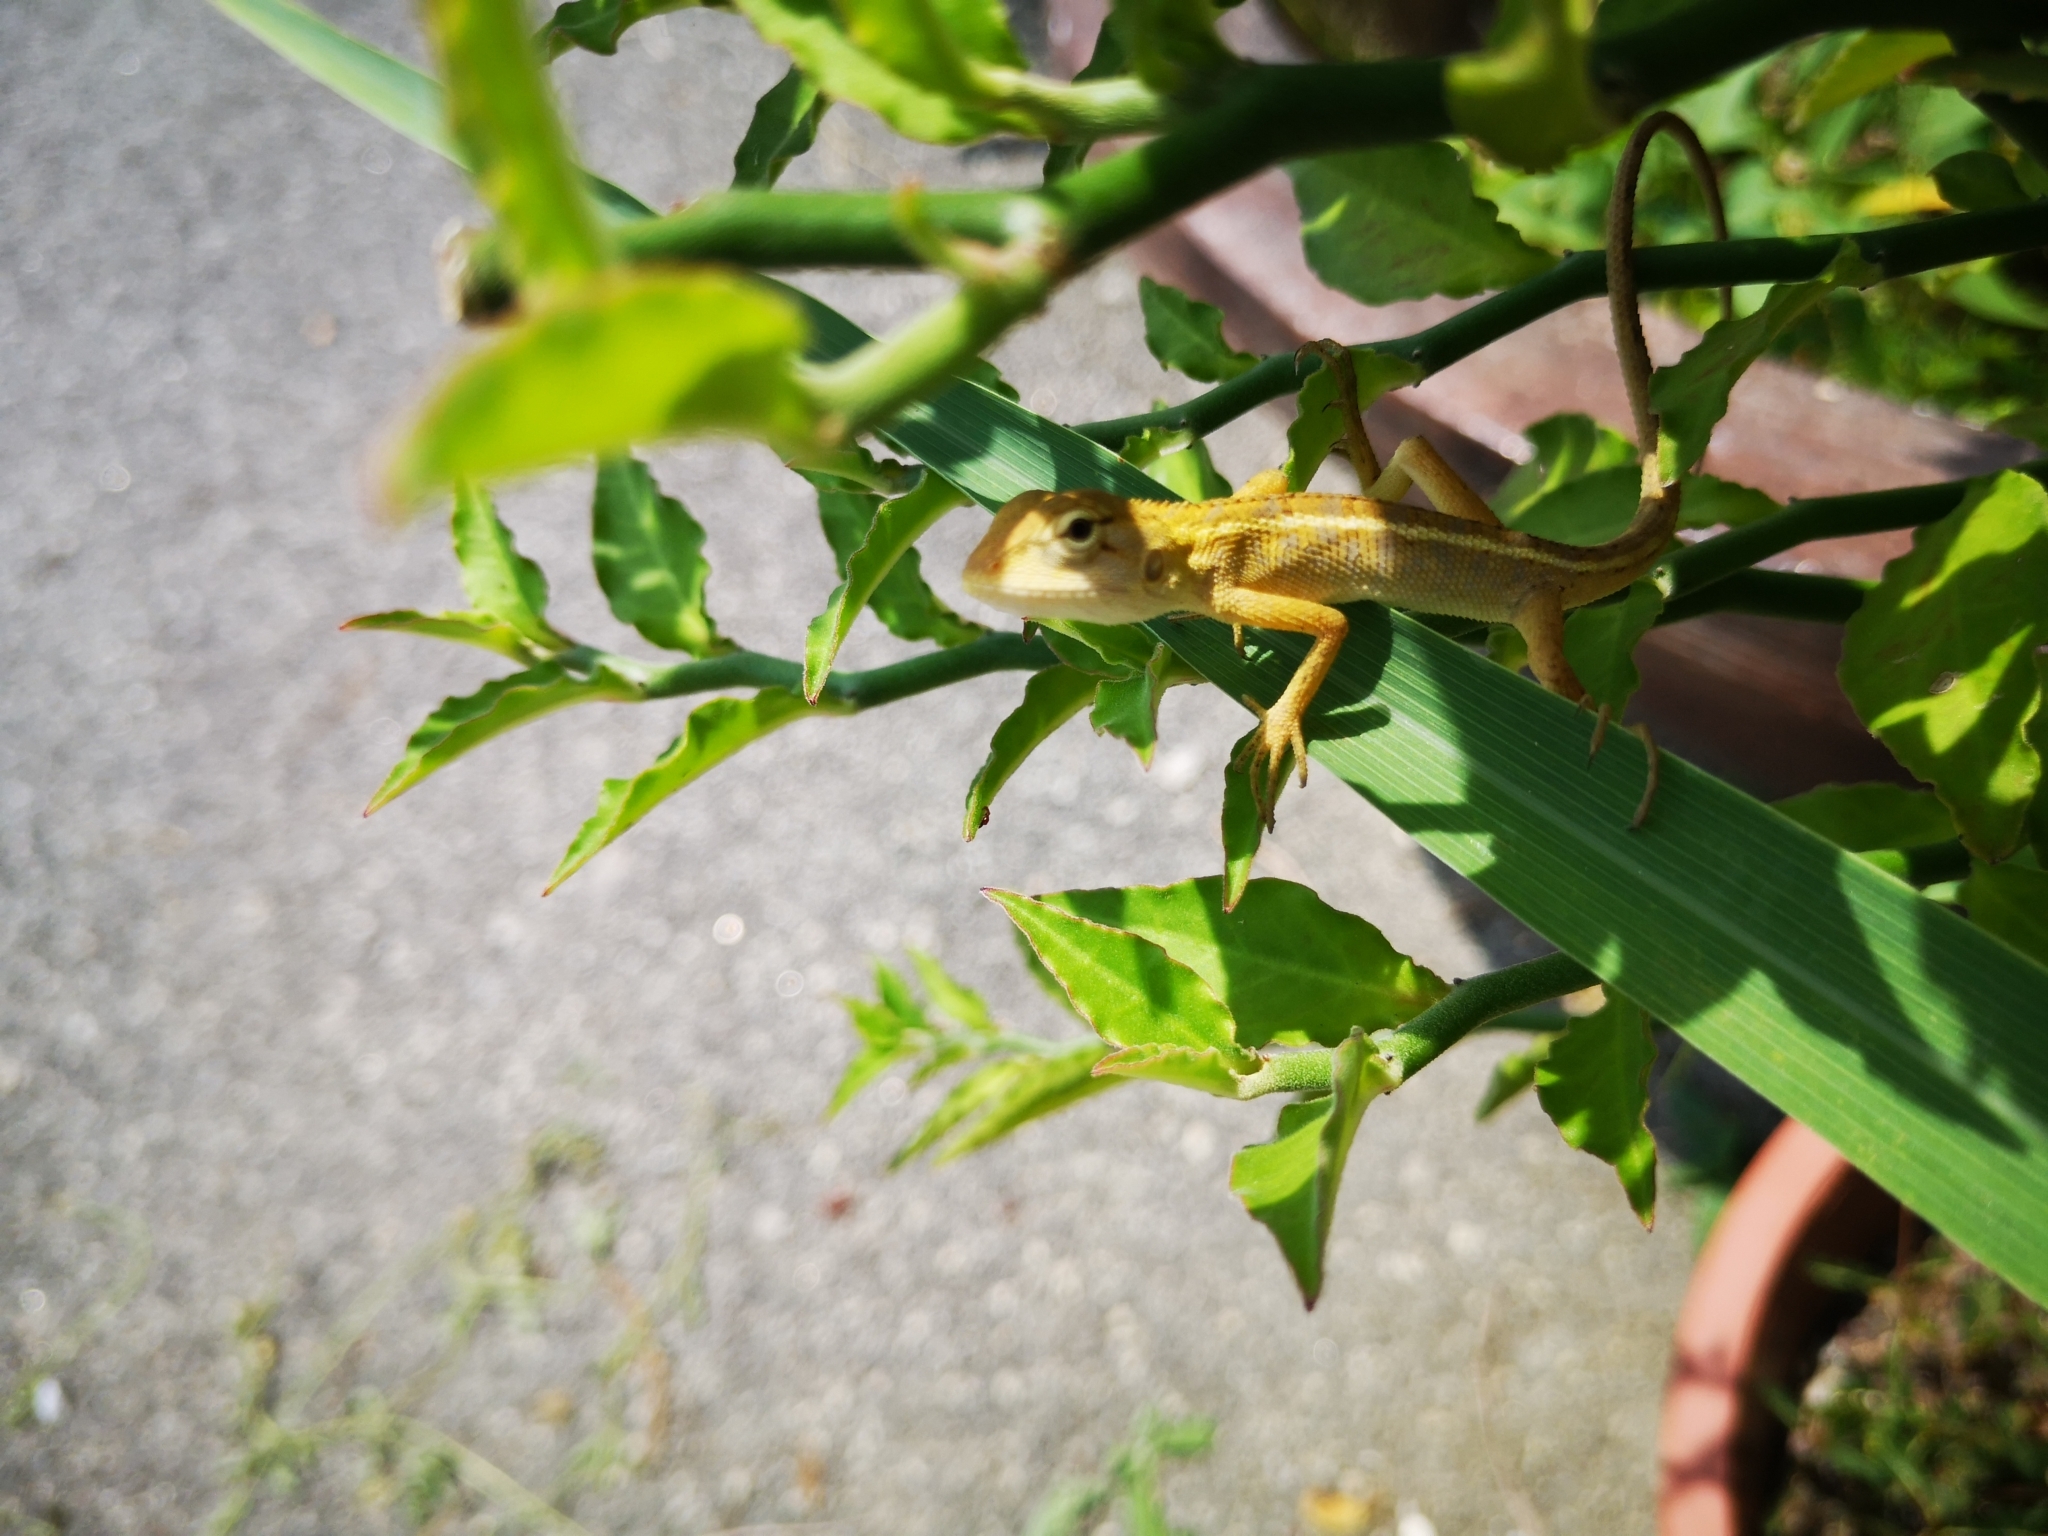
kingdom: Animalia
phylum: Chordata
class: Squamata
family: Agamidae
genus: Calotes
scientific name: Calotes versicolor
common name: Oriental garden lizard
